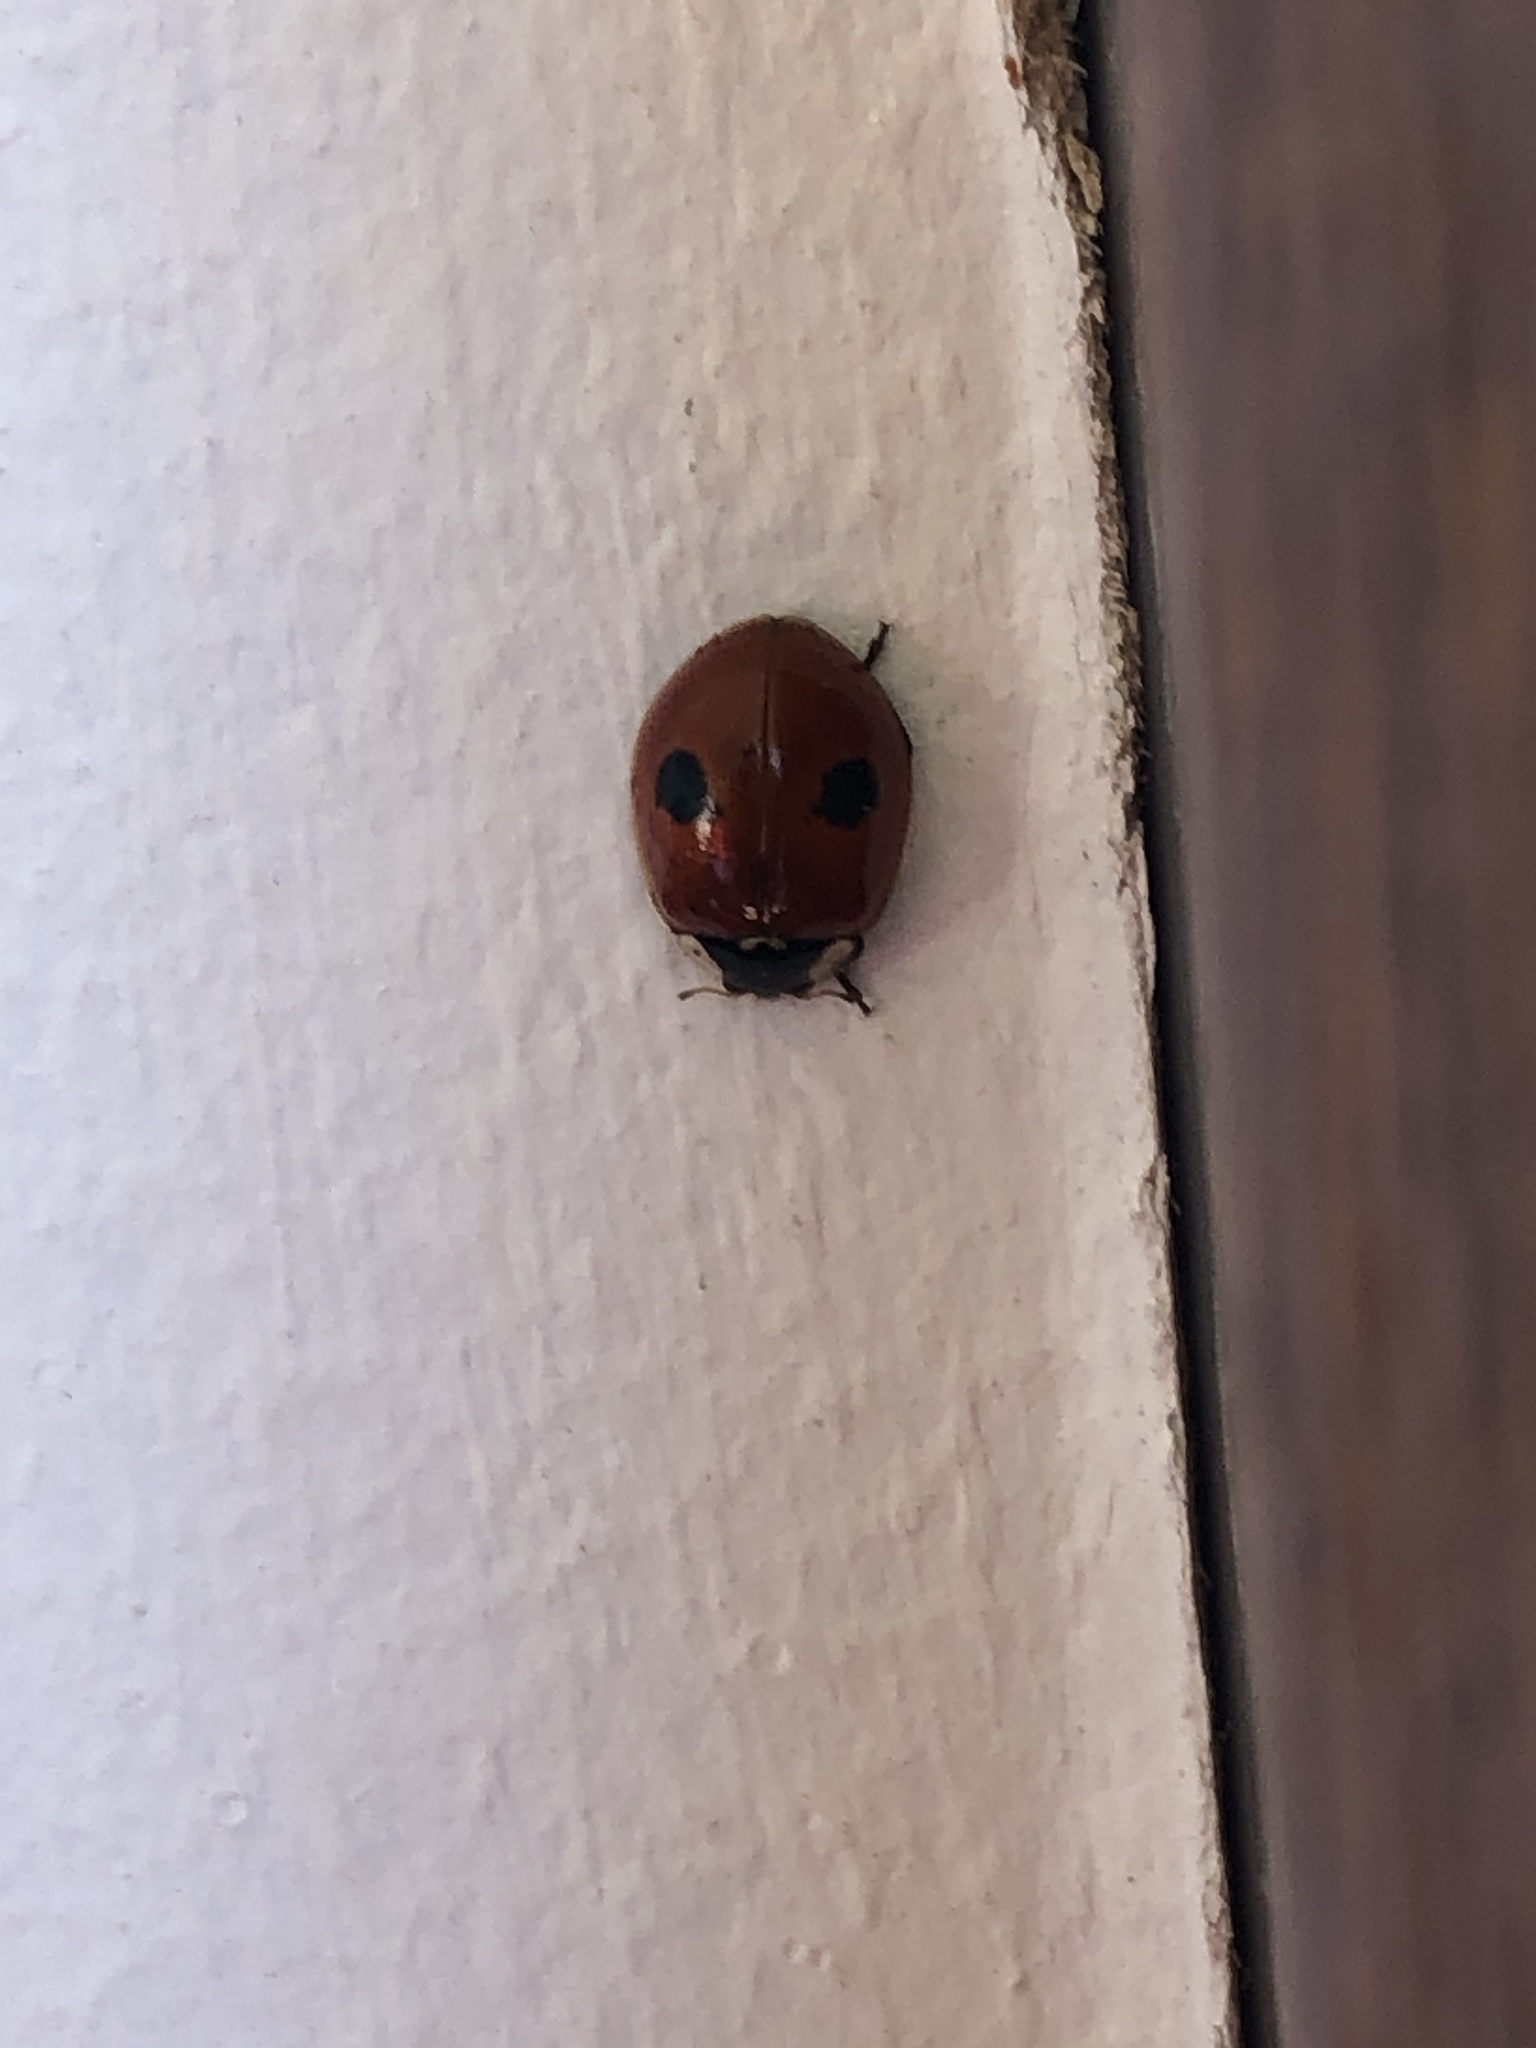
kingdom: Animalia
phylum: Arthropoda
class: Insecta
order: Coleoptera
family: Coccinellidae
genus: Adalia
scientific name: Adalia bipunctata
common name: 2-spot ladybird
